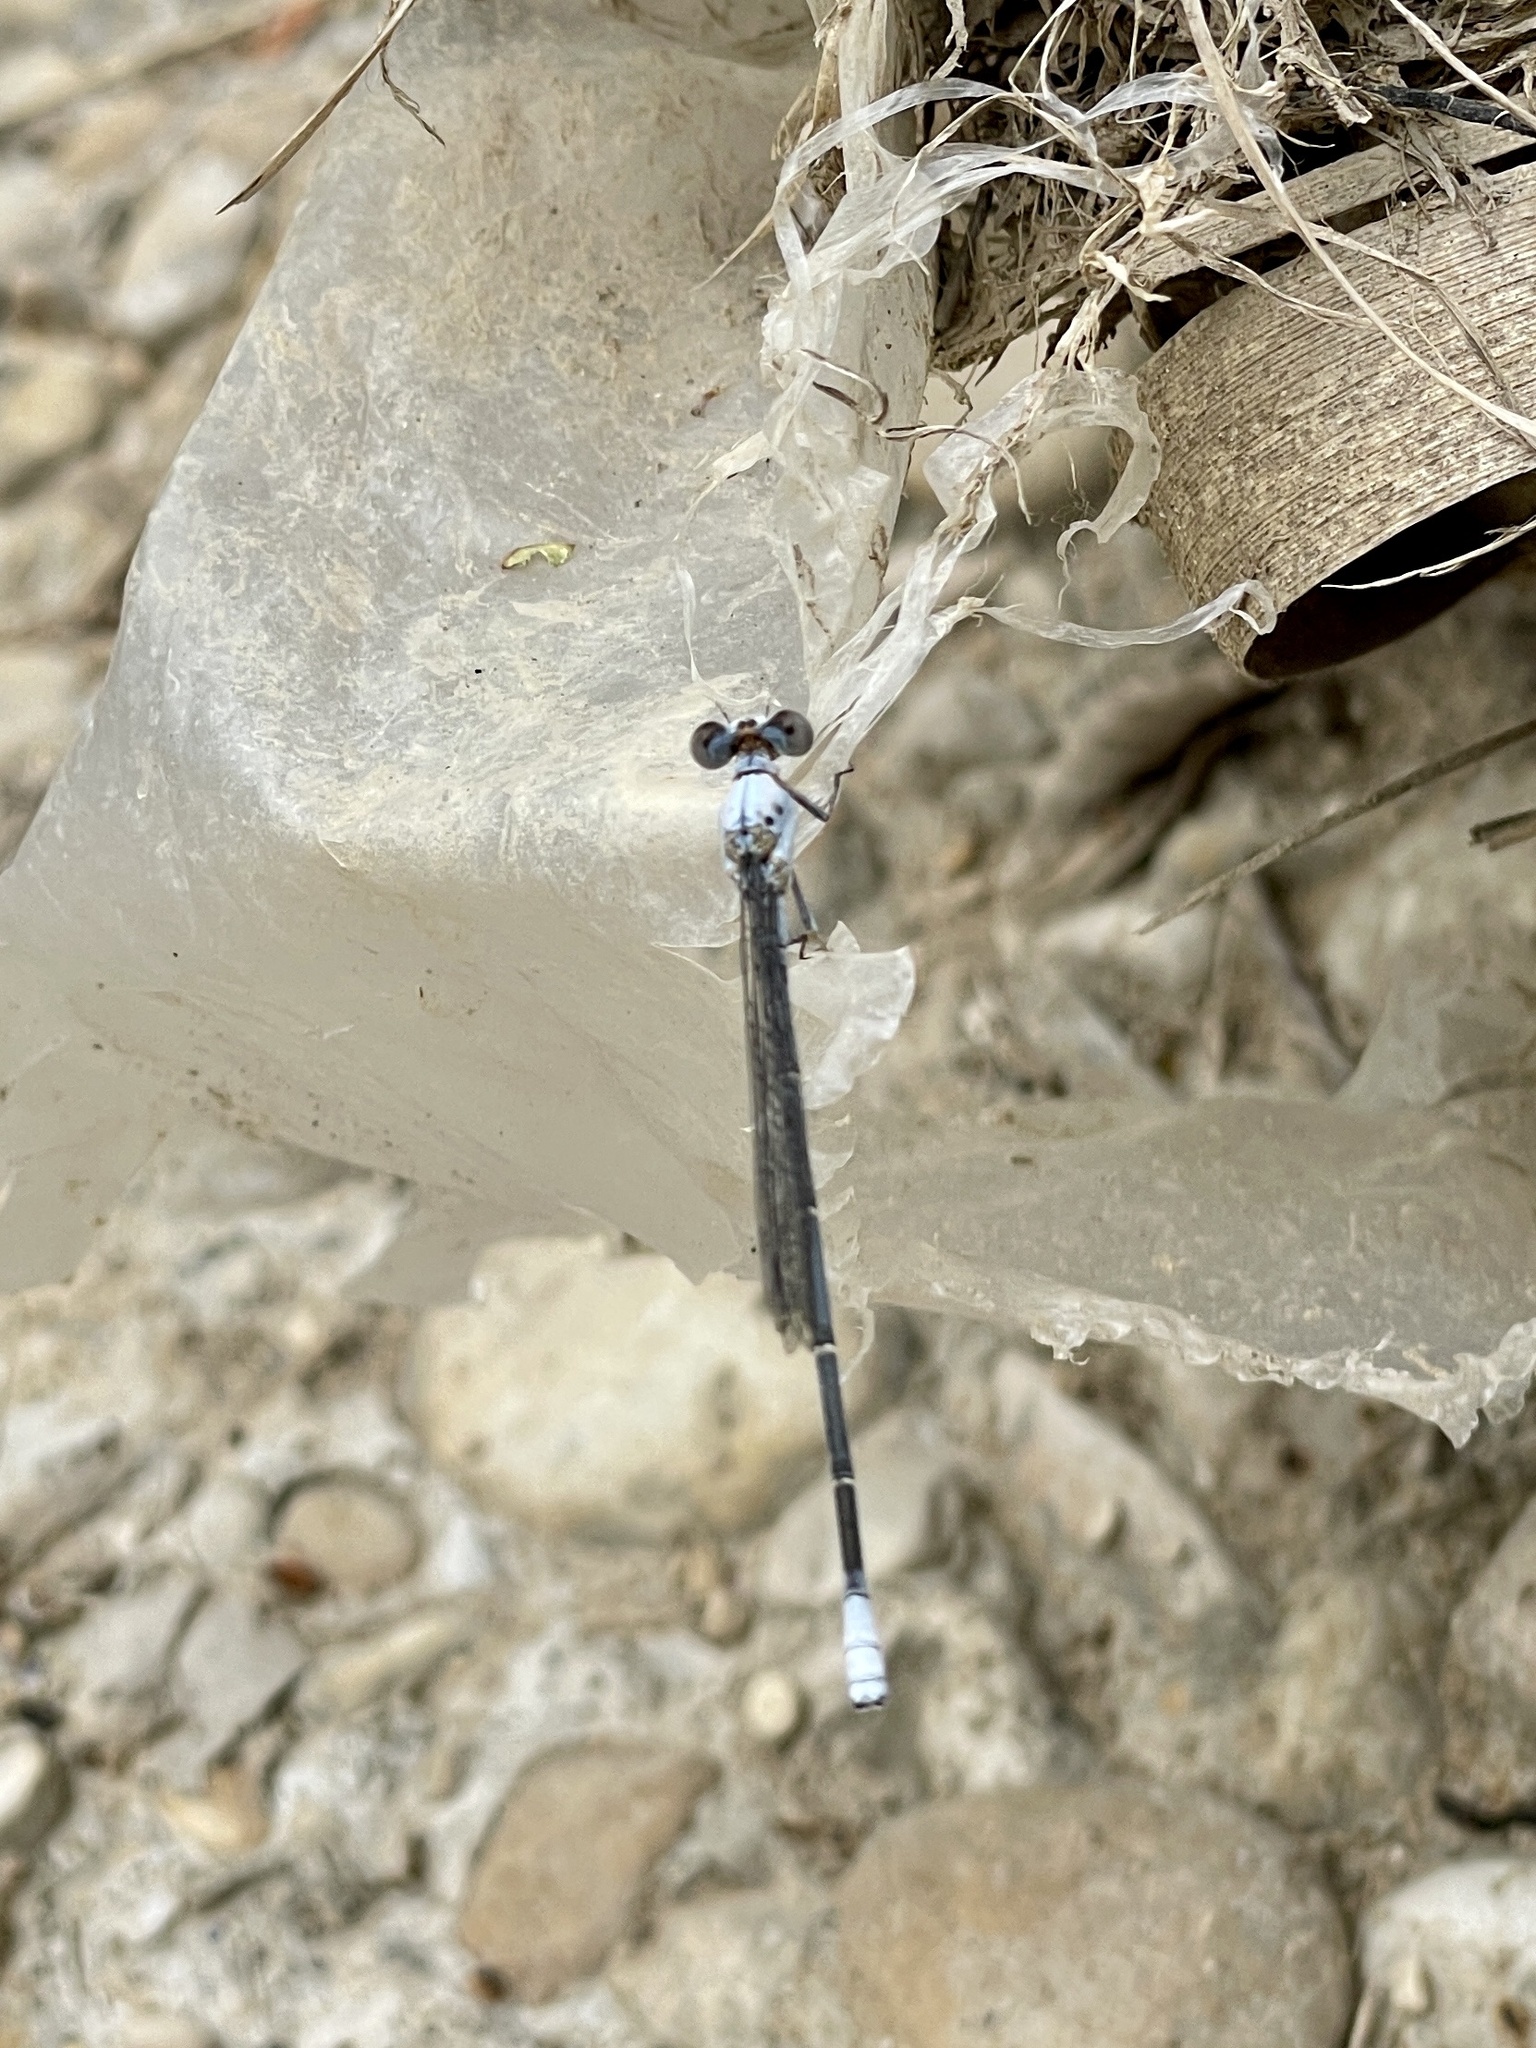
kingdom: Animalia
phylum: Arthropoda
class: Insecta
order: Odonata
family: Coenagrionidae
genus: Argia
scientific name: Argia moesta
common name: Powdered dancer
